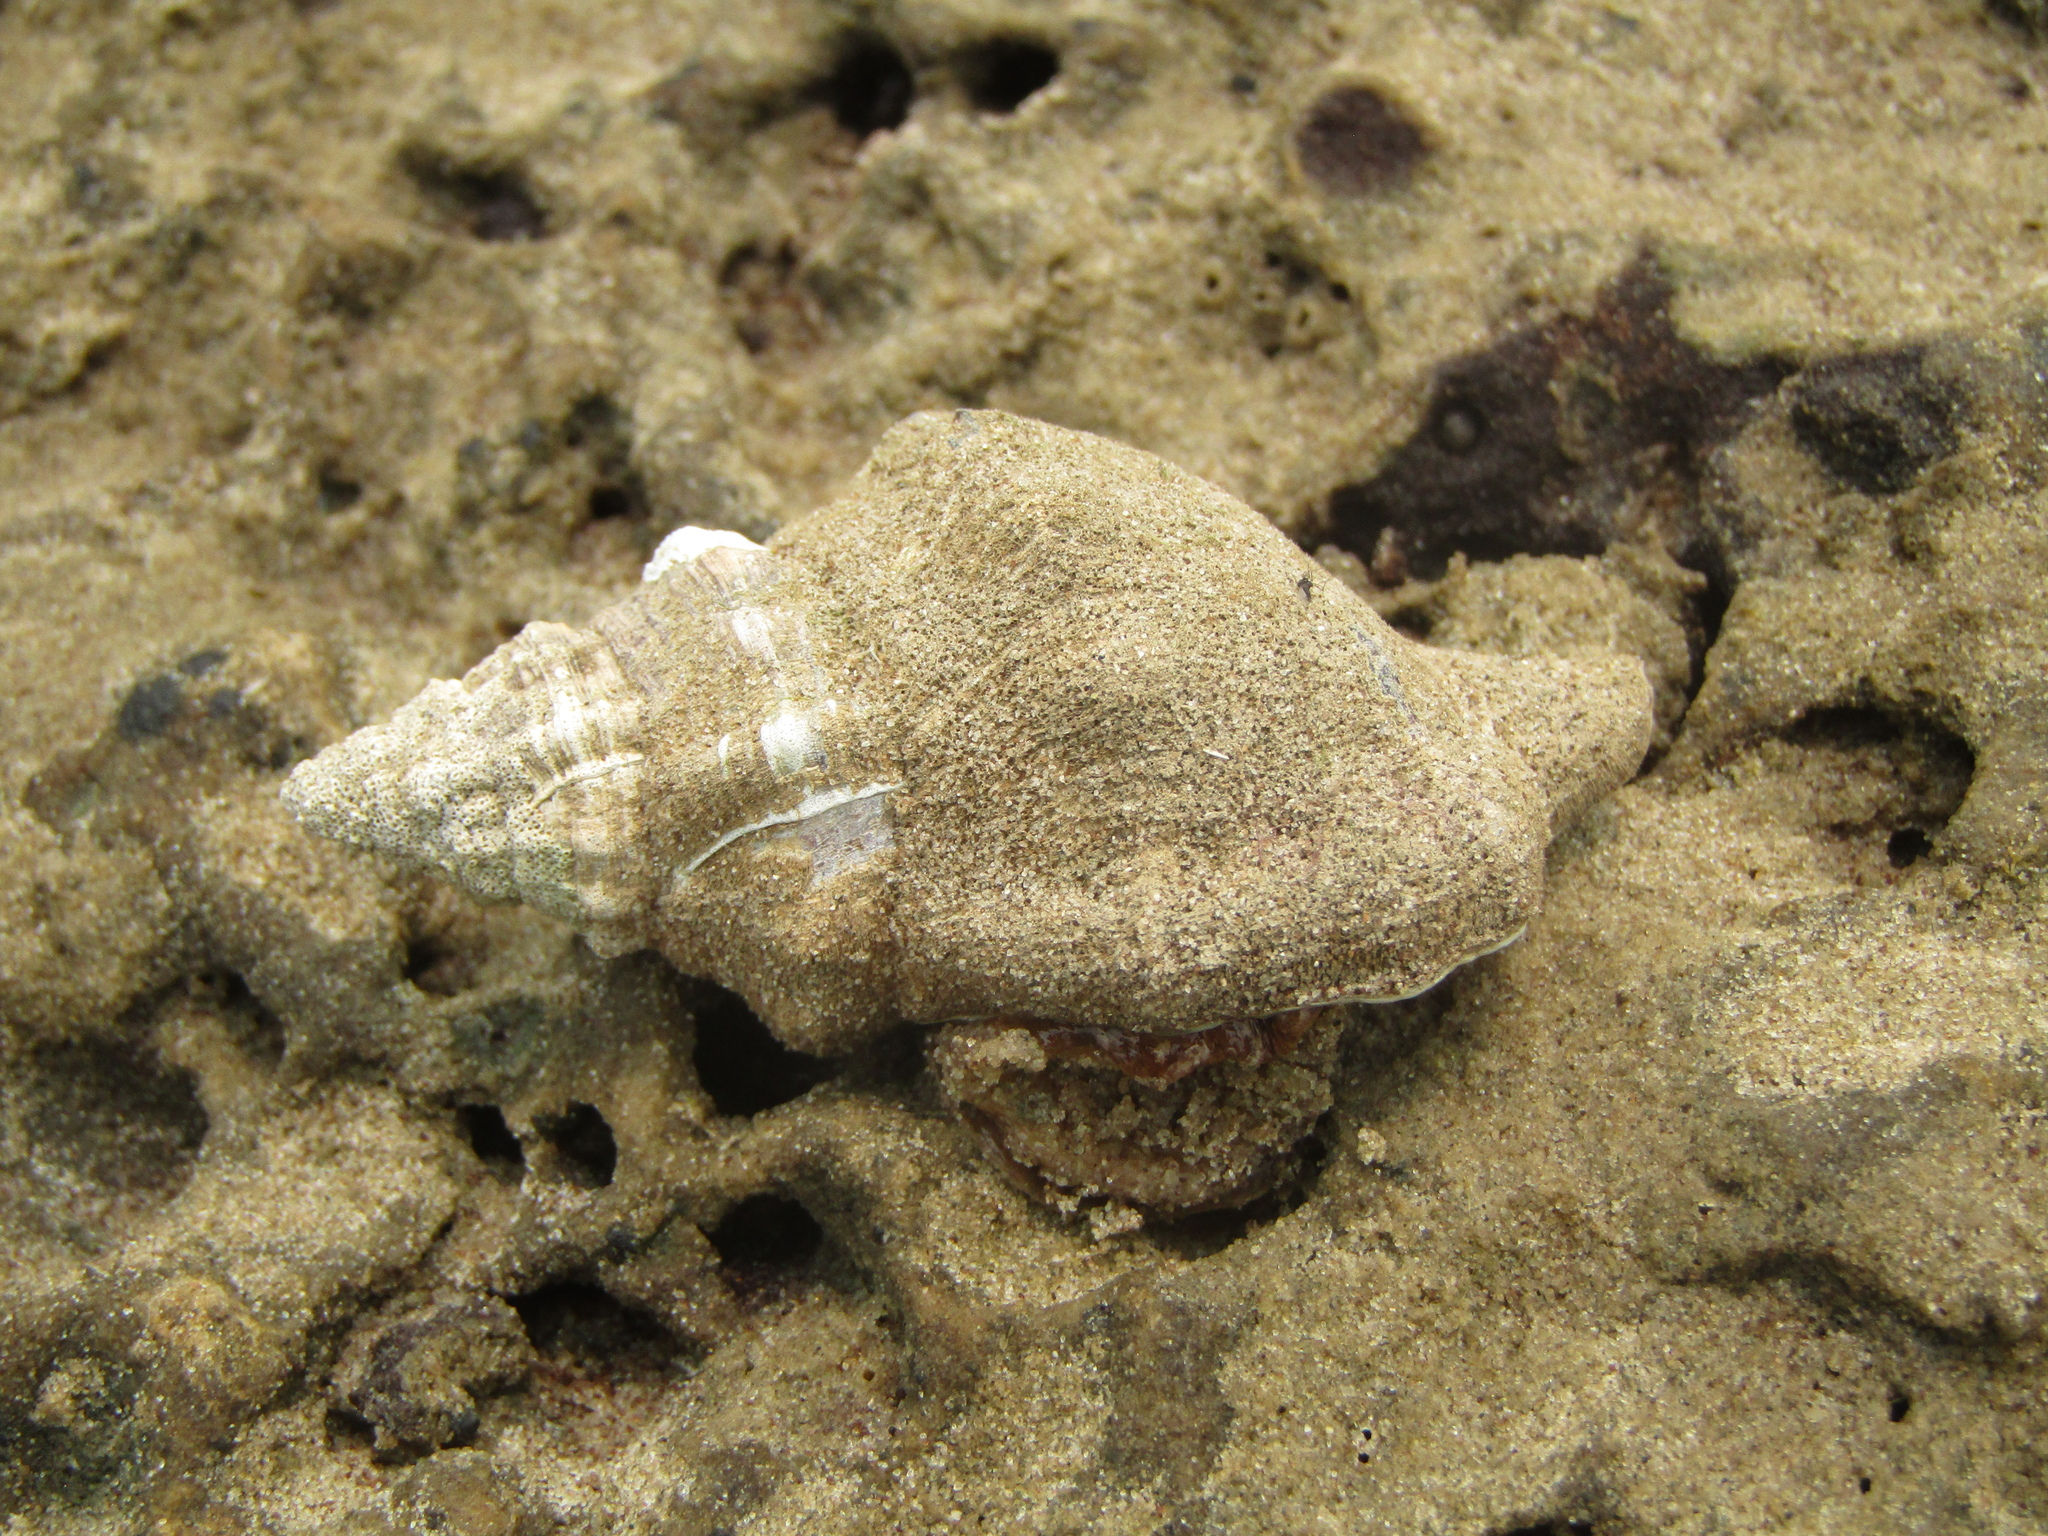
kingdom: Animalia
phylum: Mollusca
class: Gastropoda
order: Littorinimorpha
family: Ranellidae
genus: Ranella
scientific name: Ranella australasia
